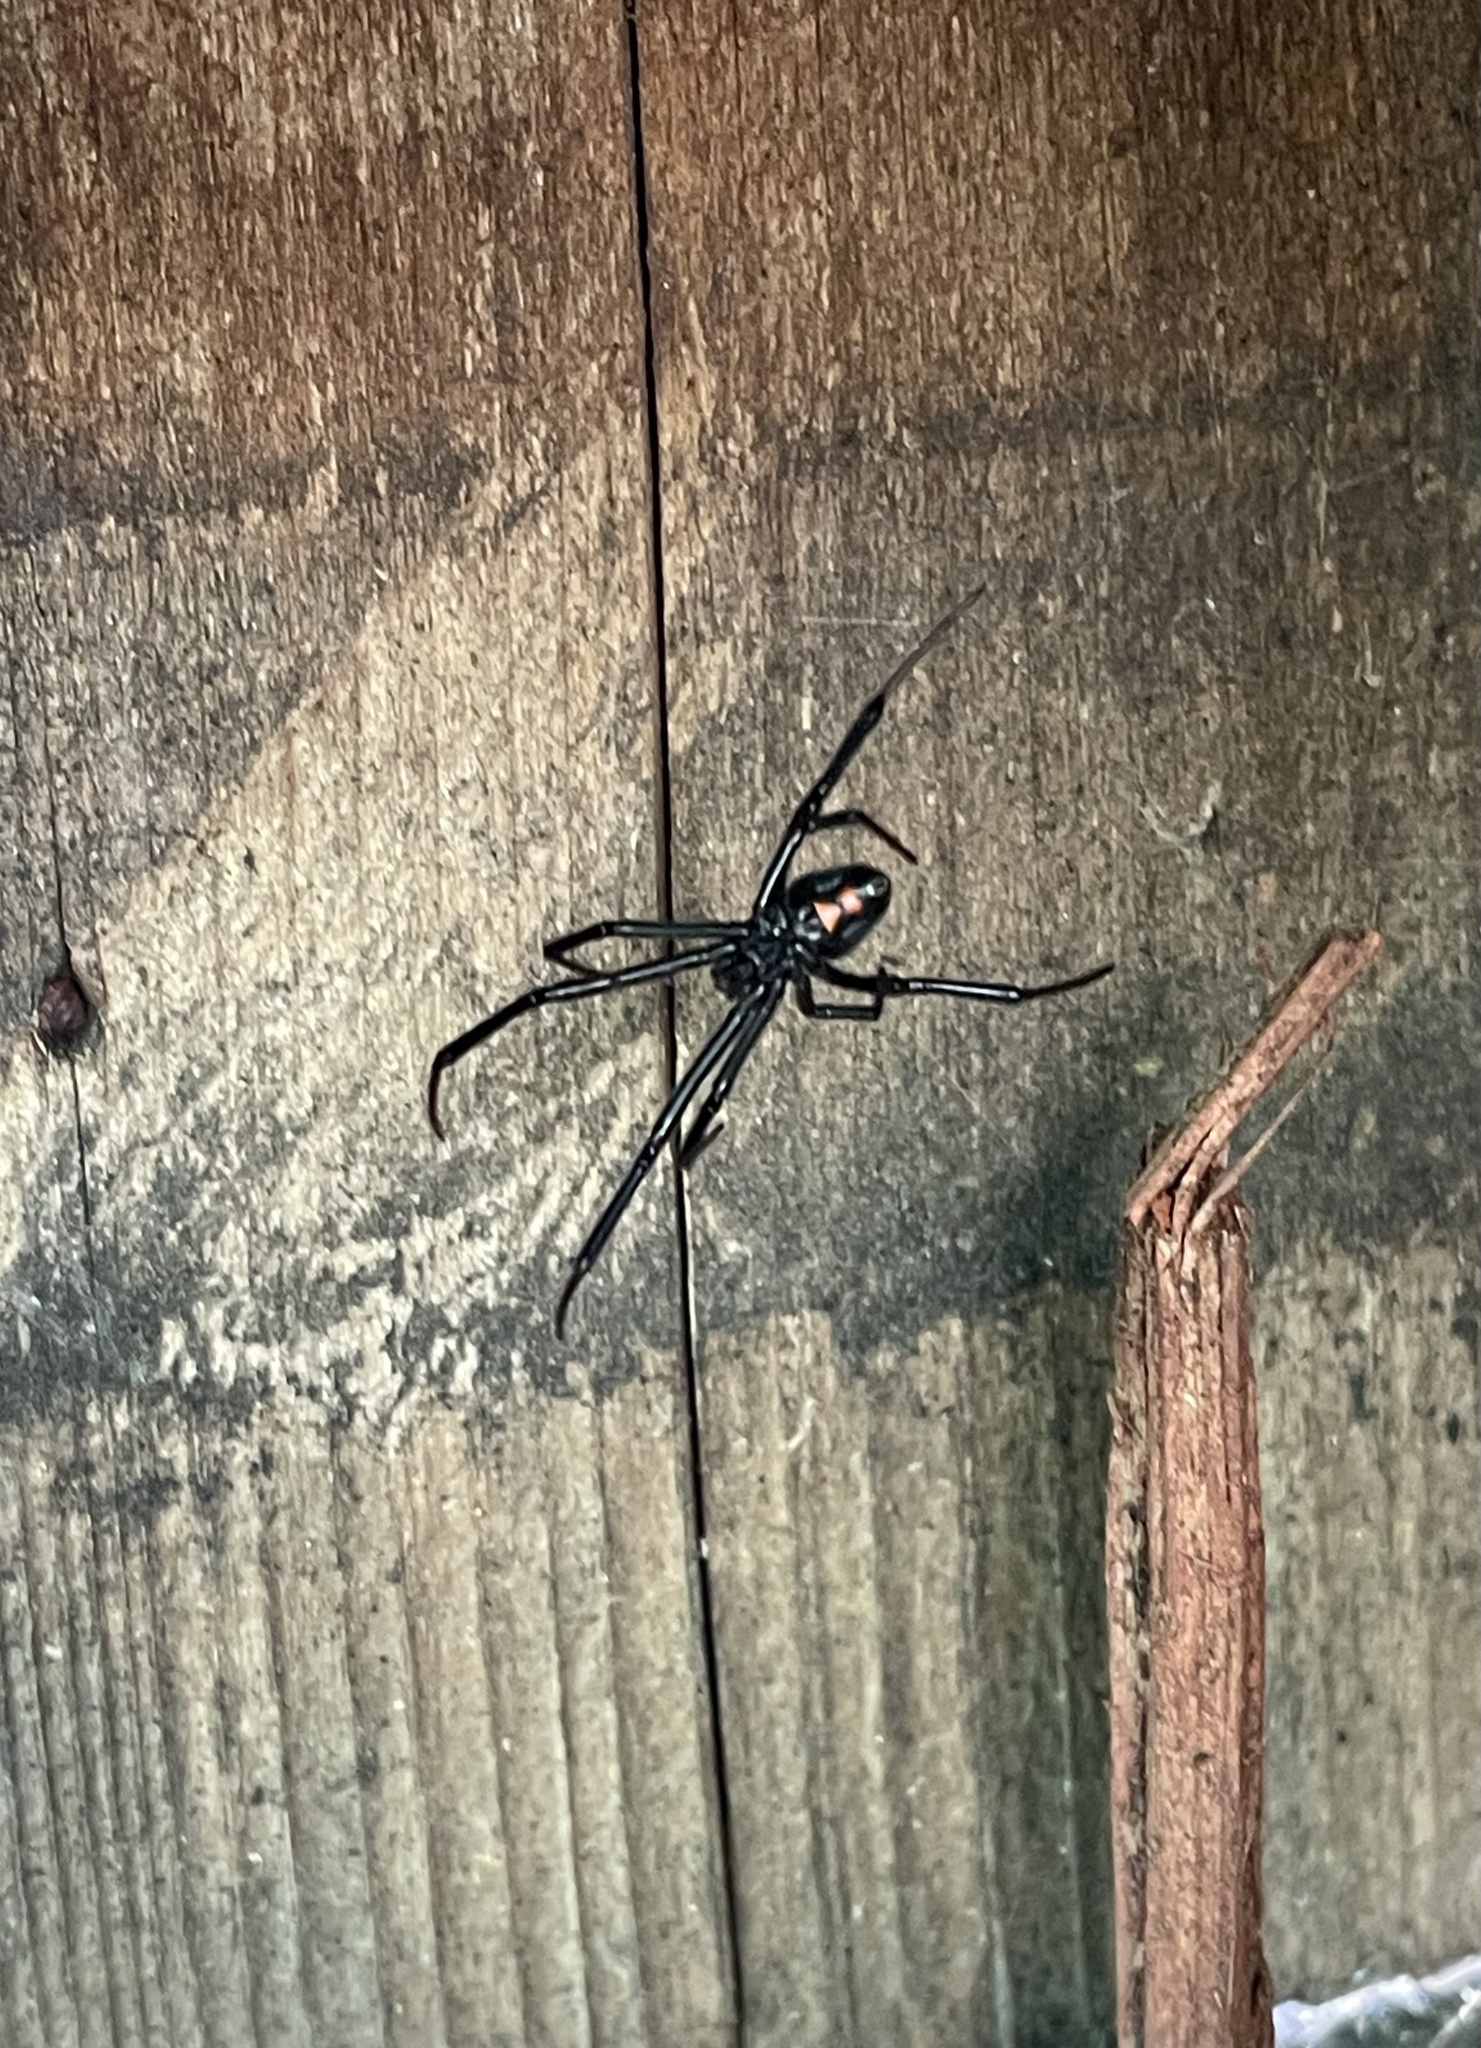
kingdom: Animalia
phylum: Arthropoda
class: Arachnida
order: Araneae
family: Theridiidae
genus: Latrodectus
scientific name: Latrodectus hesperus
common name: Western black widow
